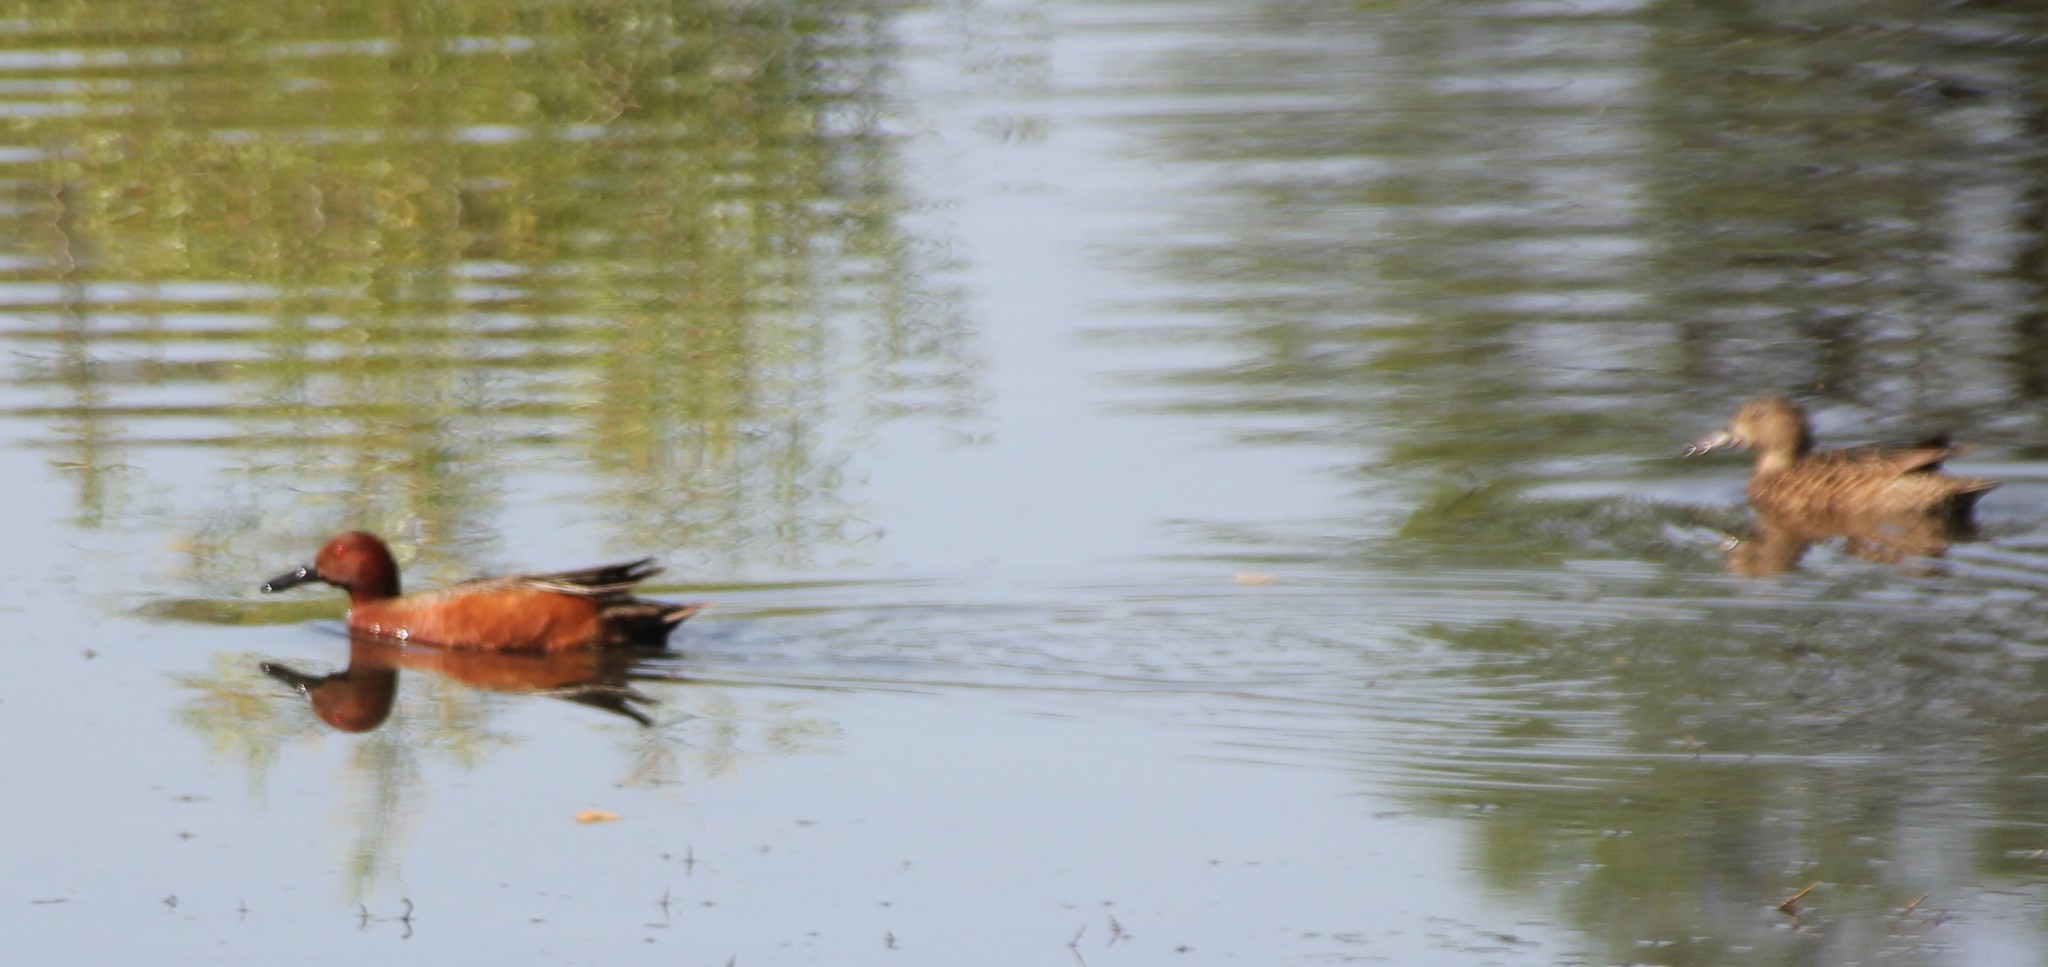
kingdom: Animalia
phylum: Chordata
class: Aves
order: Anseriformes
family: Anatidae
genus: Spatula
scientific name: Spatula cyanoptera
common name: Cinnamon teal
